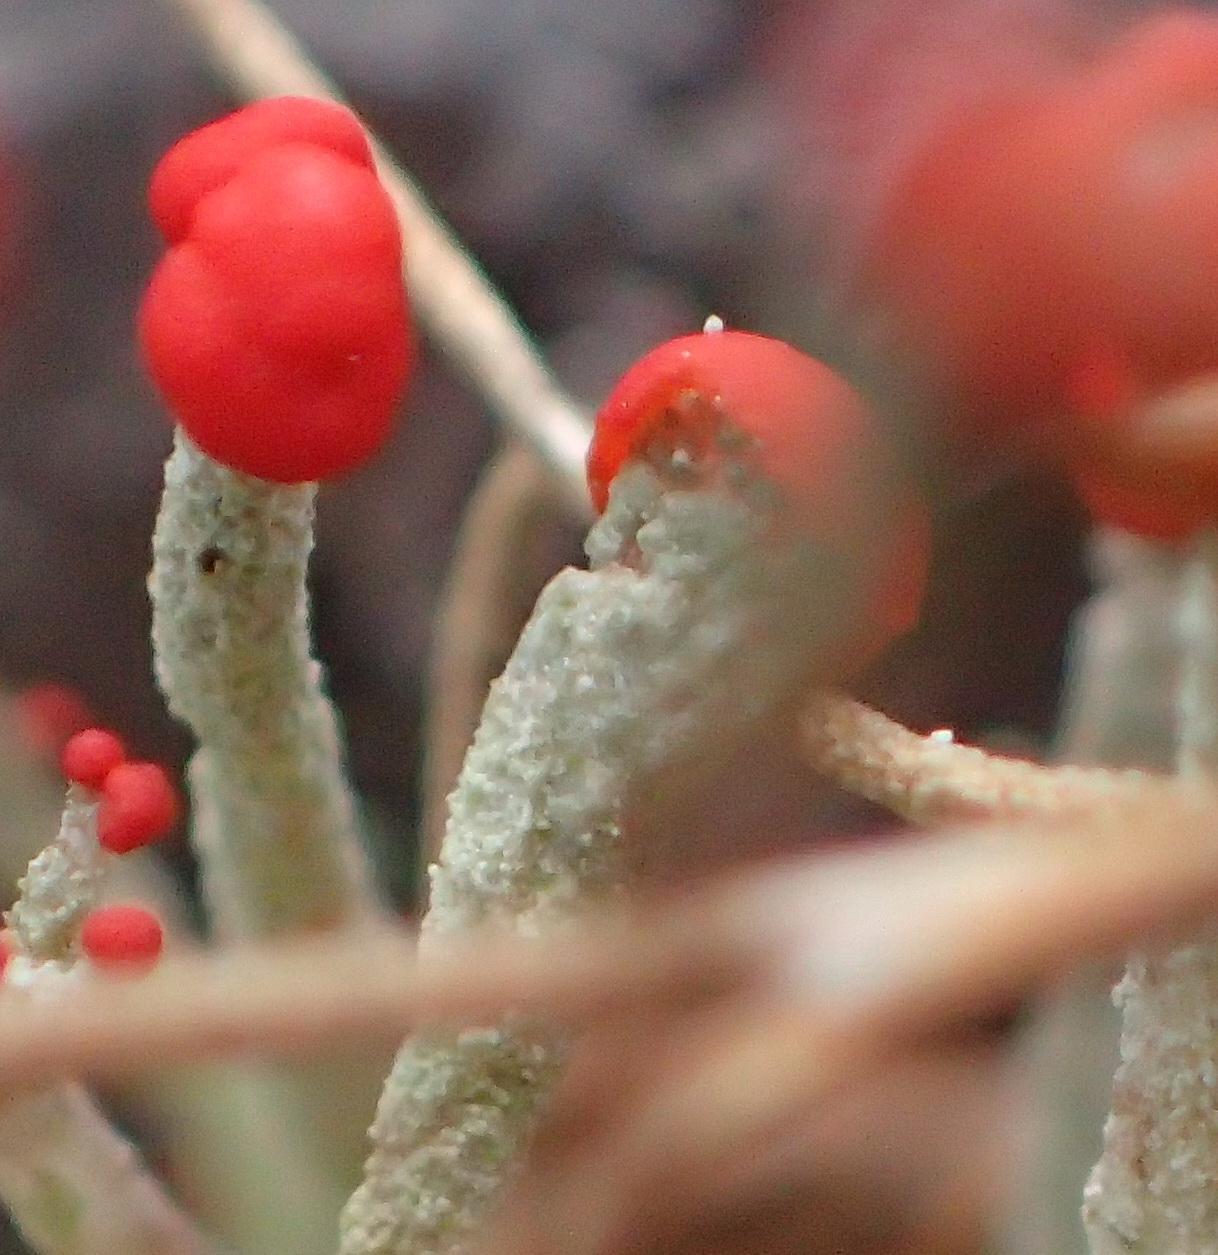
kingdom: Fungi
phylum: Ascomycota
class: Lecanoromycetes
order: Lecanorales
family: Cladoniaceae
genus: Cladonia
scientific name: Cladonia macilenta
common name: Lipstick powderhorn
